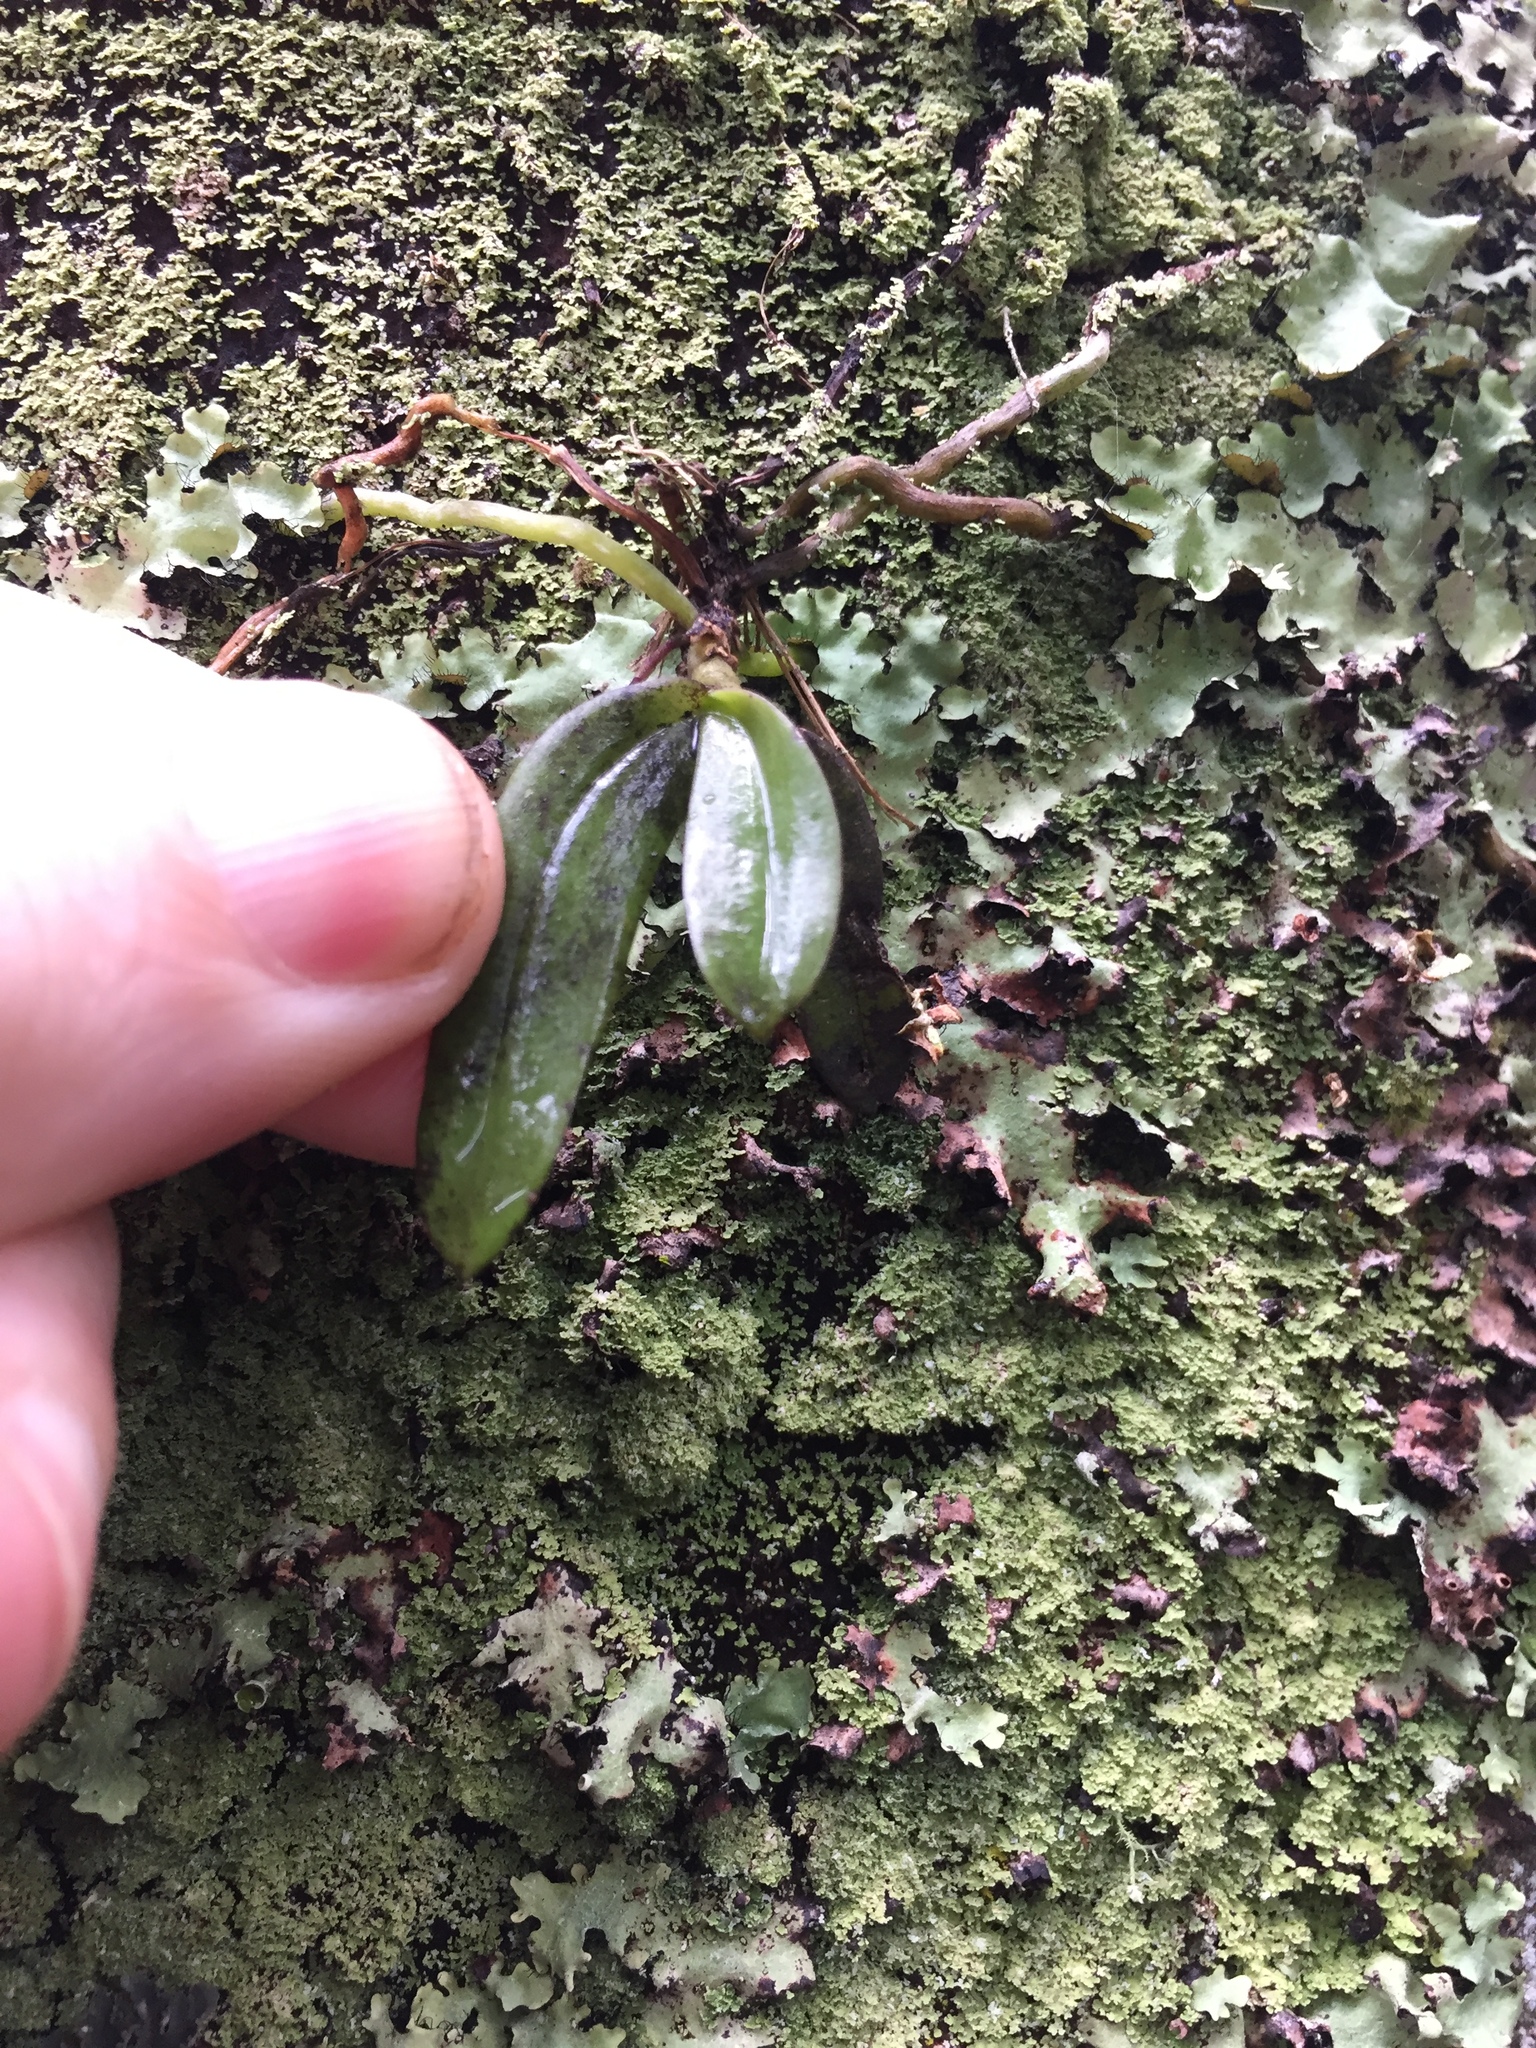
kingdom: Plantae
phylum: Tracheophyta
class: Liliopsida
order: Asparagales
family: Orchidaceae
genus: Drymoanthus
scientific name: Drymoanthus adversus
